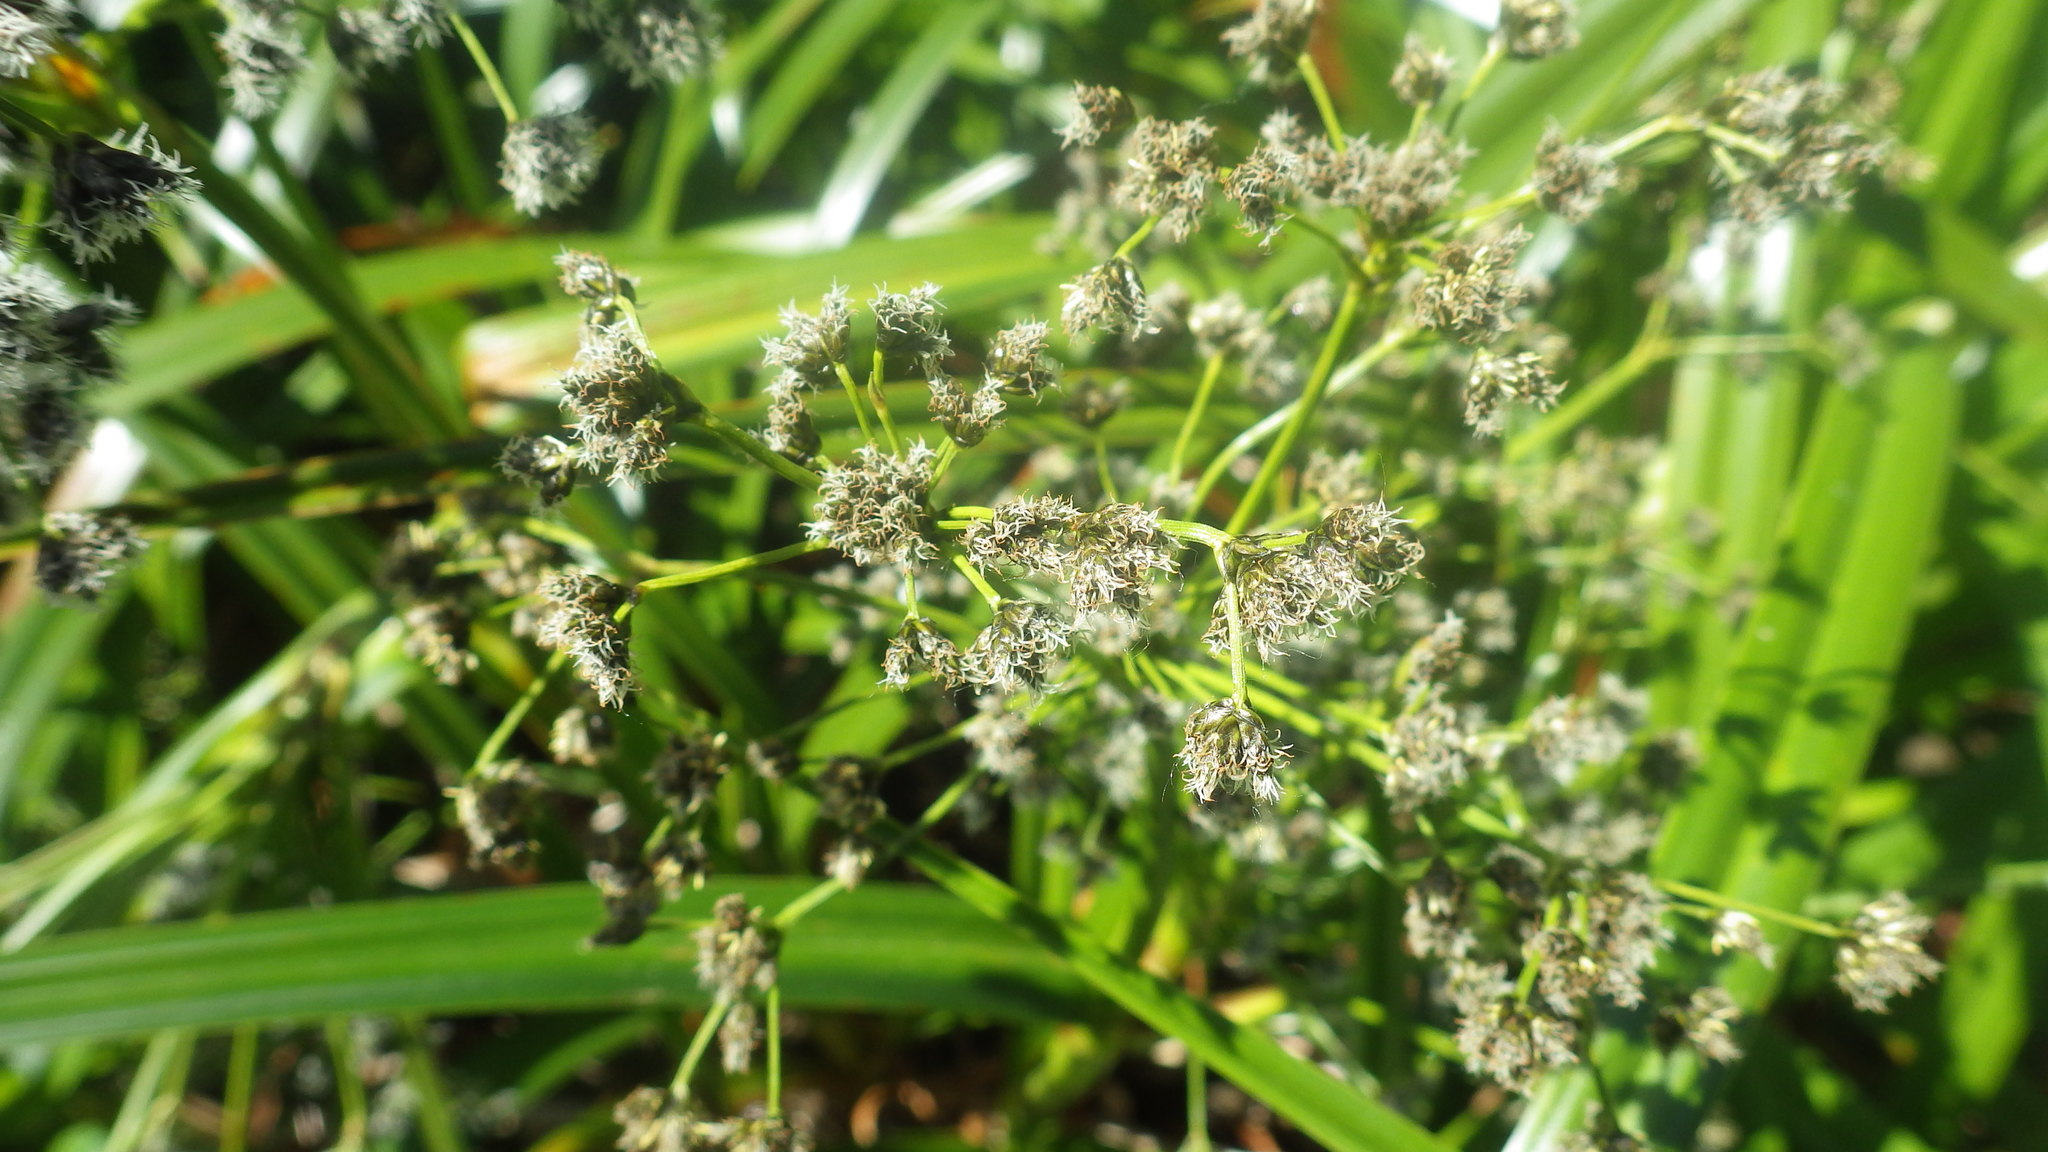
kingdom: Plantae
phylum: Tracheophyta
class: Liliopsida
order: Poales
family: Cyperaceae
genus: Scirpus
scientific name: Scirpus microcarpus
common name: Panicled bulrush
